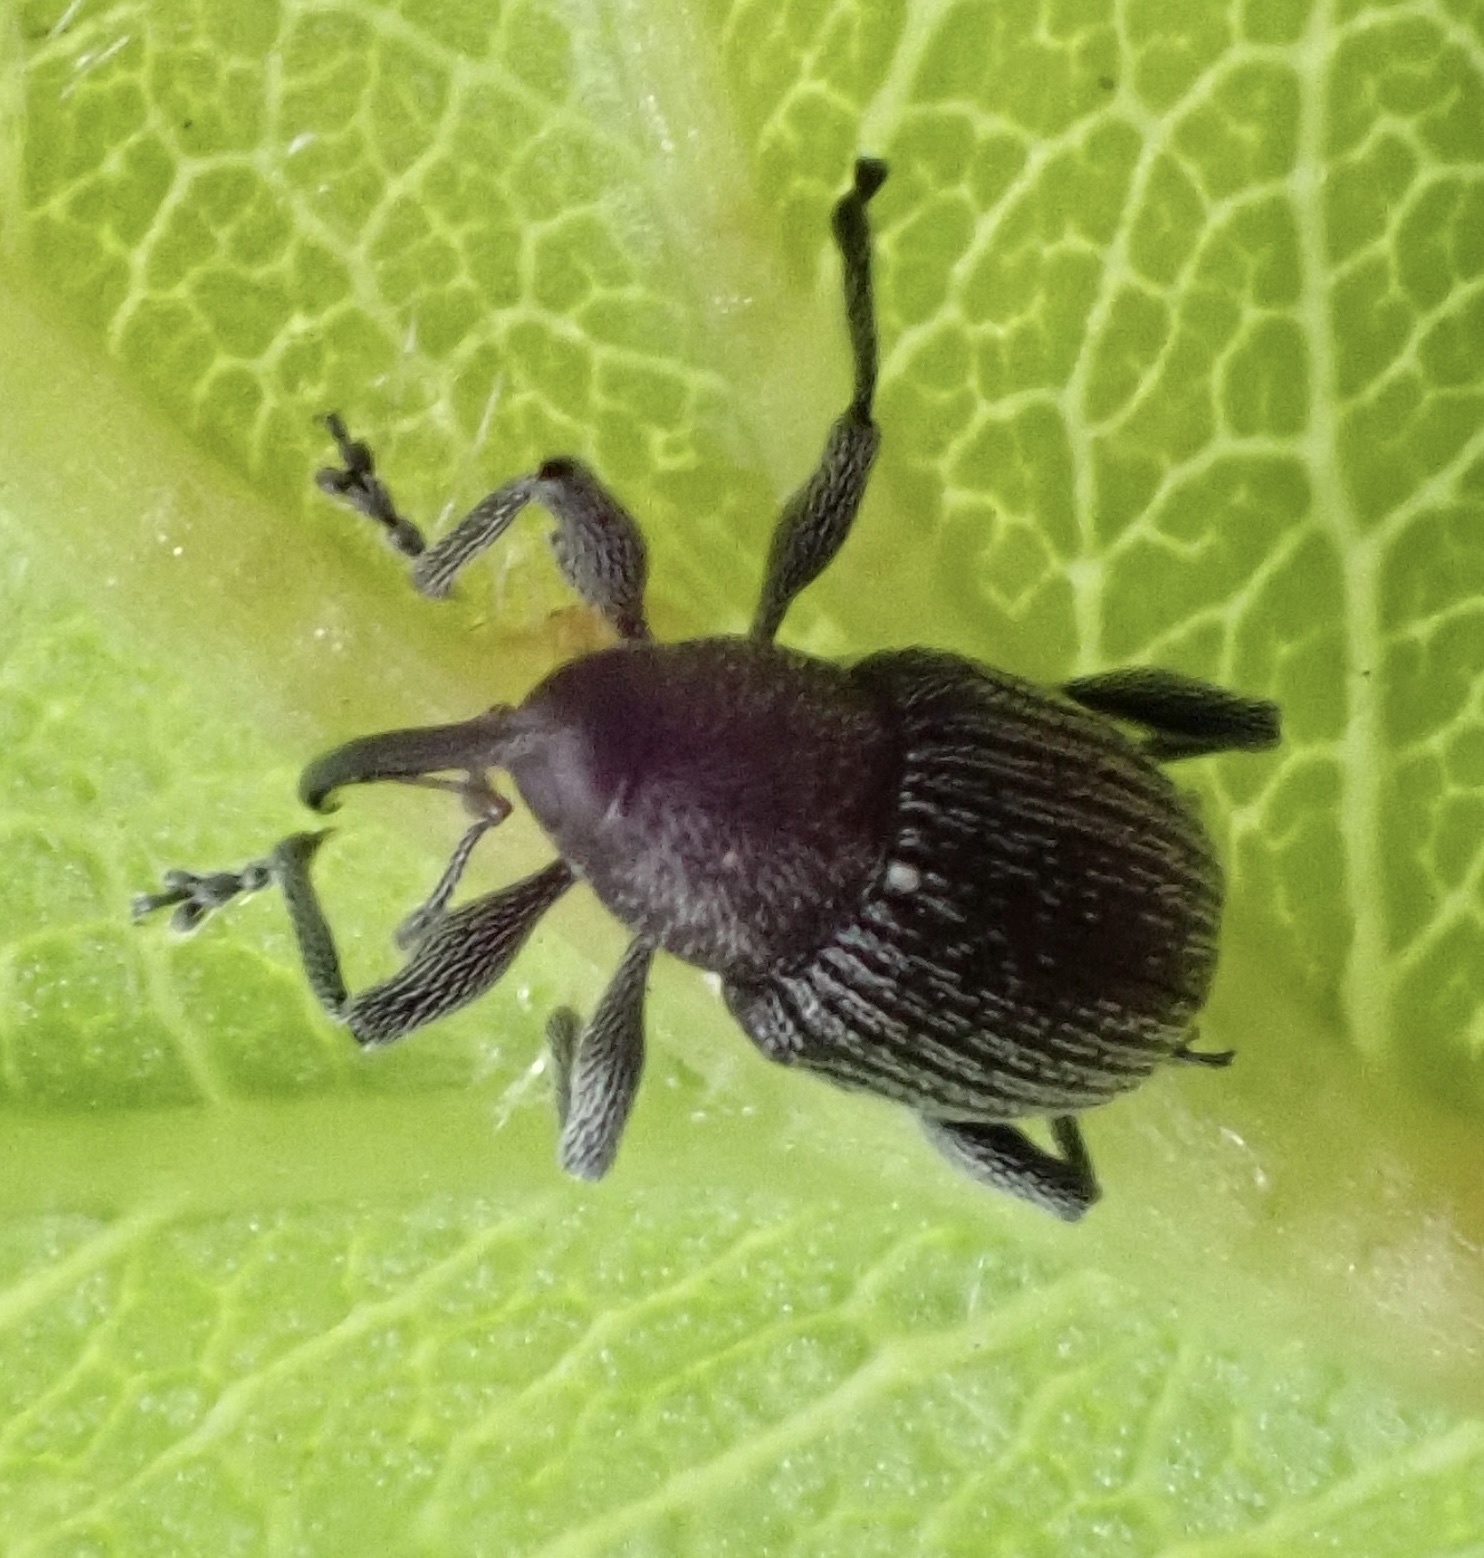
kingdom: Animalia
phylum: Arthropoda
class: Insecta
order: Coleoptera
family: Curculionidae
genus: Archarius
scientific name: Archarius salicivorus
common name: Weevil
